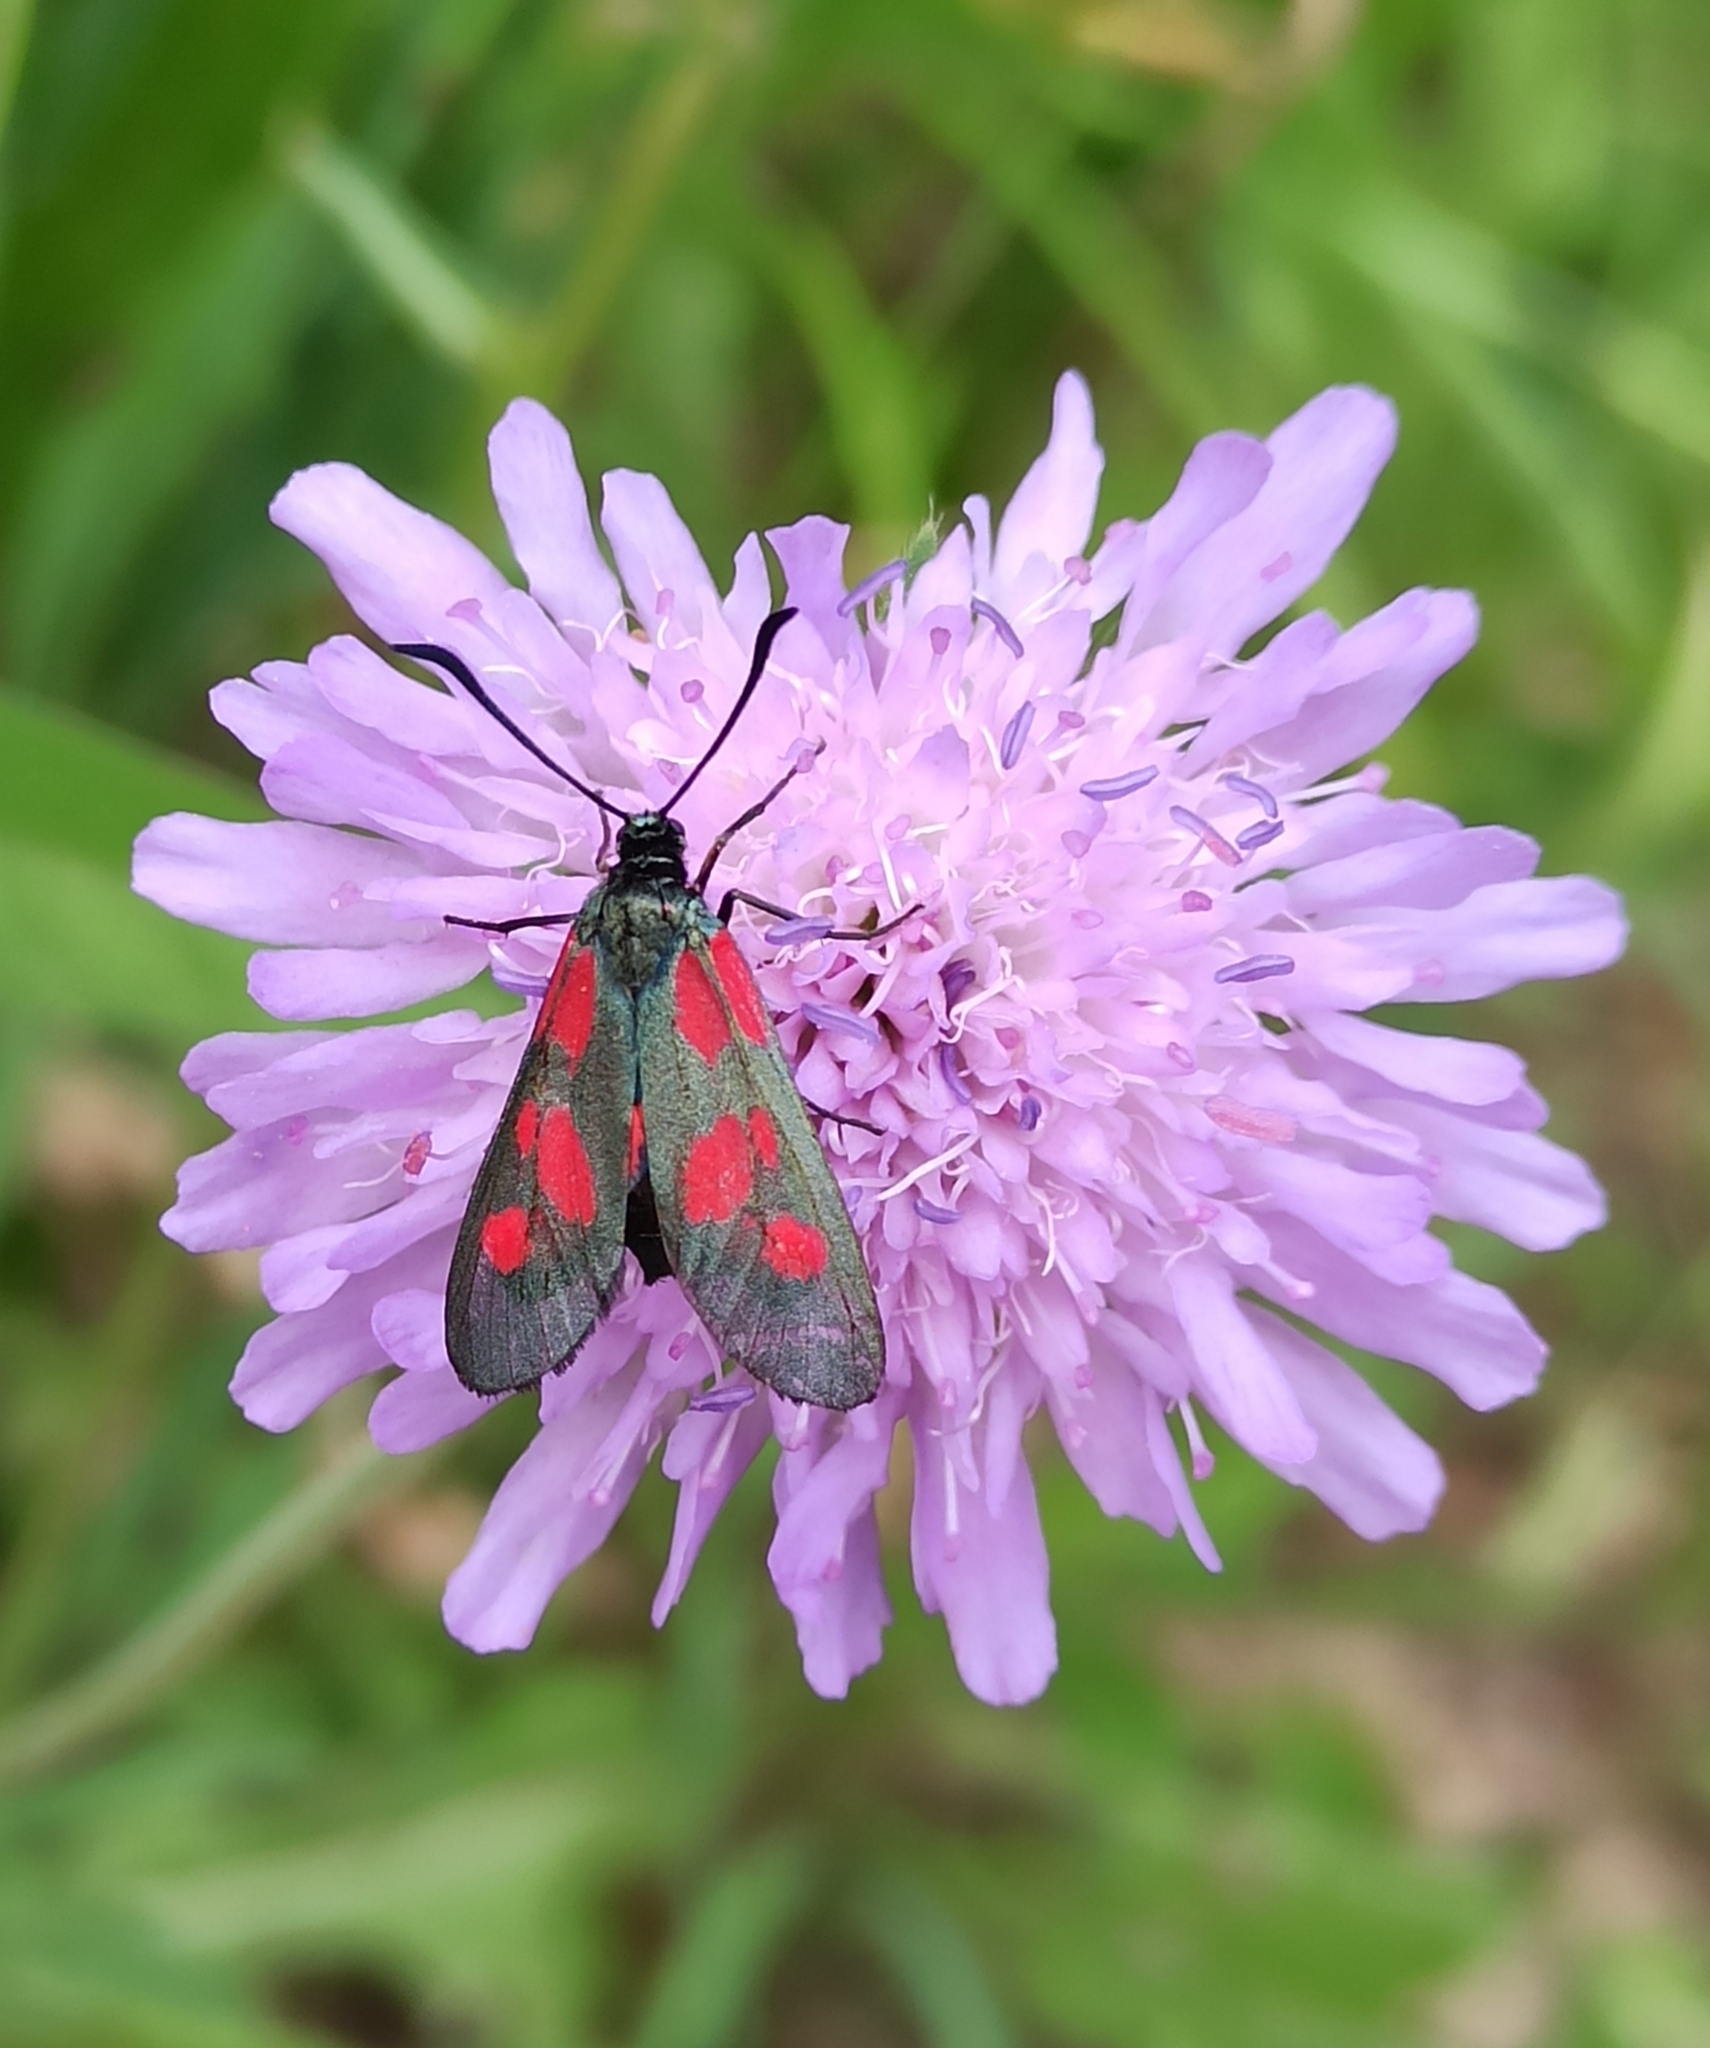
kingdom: Animalia
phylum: Arthropoda
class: Insecta
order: Lepidoptera
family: Zygaenidae
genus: Zygaena
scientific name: Zygaena viciae
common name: New forest burnet
